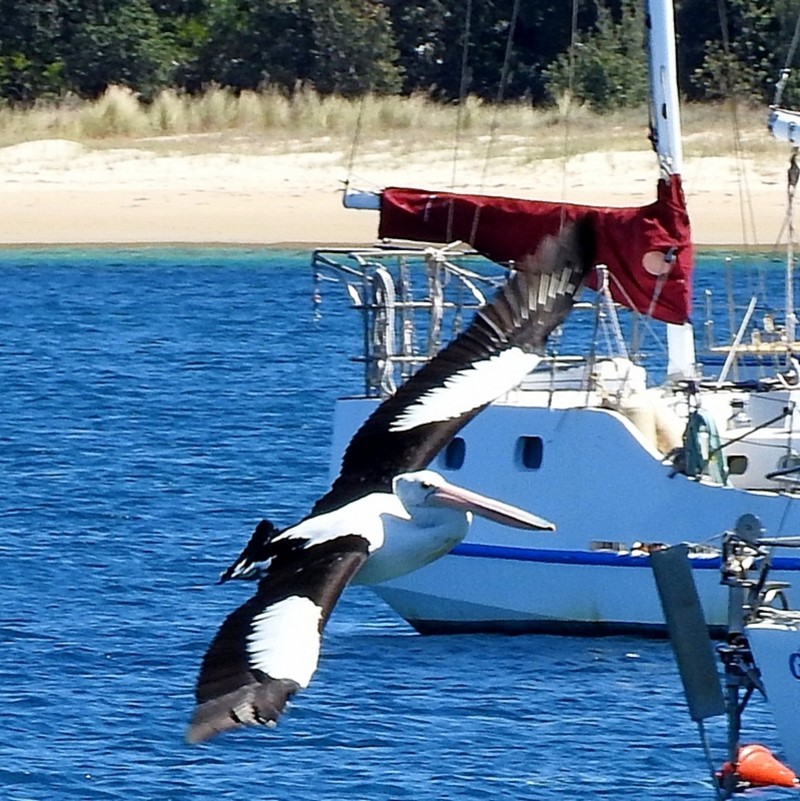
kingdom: Animalia
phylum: Chordata
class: Aves
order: Pelecaniformes
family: Pelecanidae
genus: Pelecanus
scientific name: Pelecanus conspicillatus
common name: Australian pelican
